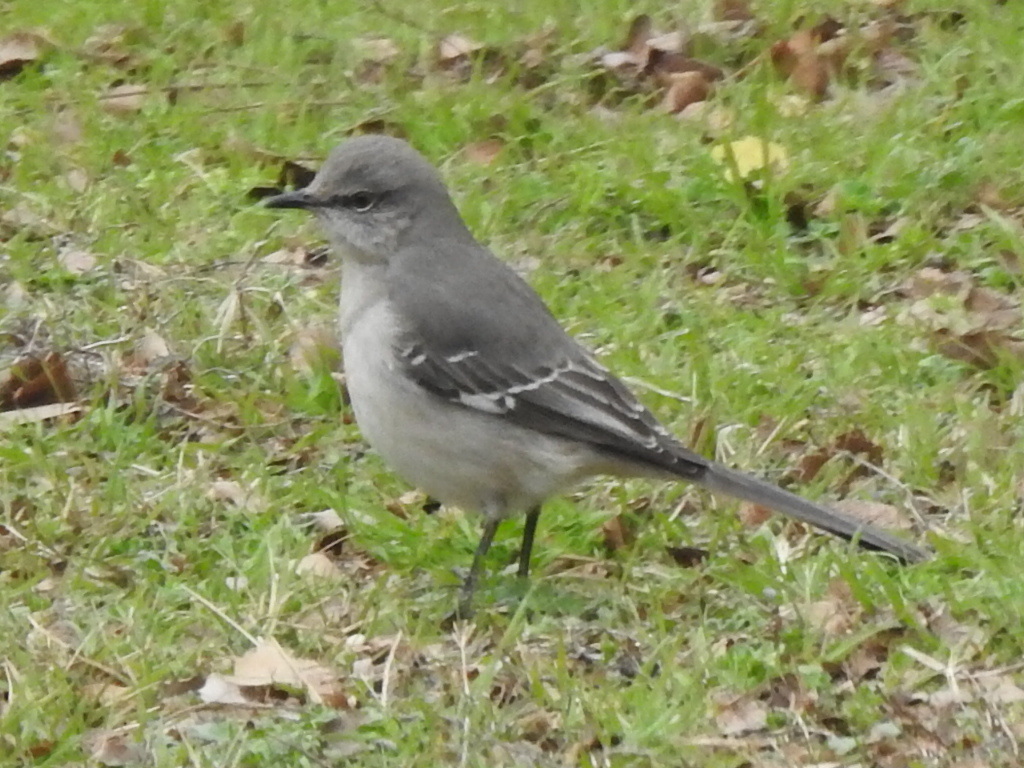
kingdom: Animalia
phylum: Chordata
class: Aves
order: Passeriformes
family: Mimidae
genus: Mimus
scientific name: Mimus polyglottos
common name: Northern mockingbird
